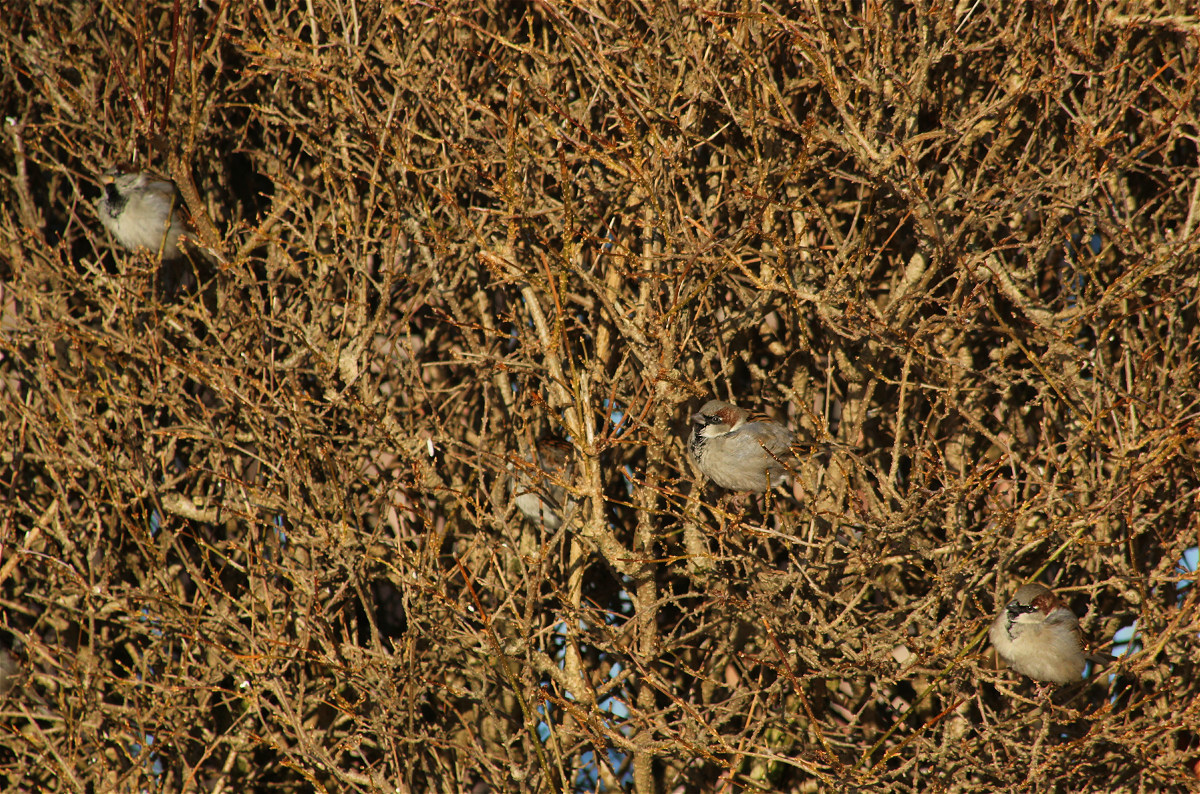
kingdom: Animalia
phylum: Chordata
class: Aves
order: Passeriformes
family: Passeridae
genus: Passer
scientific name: Passer domesticus
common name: House sparrow
